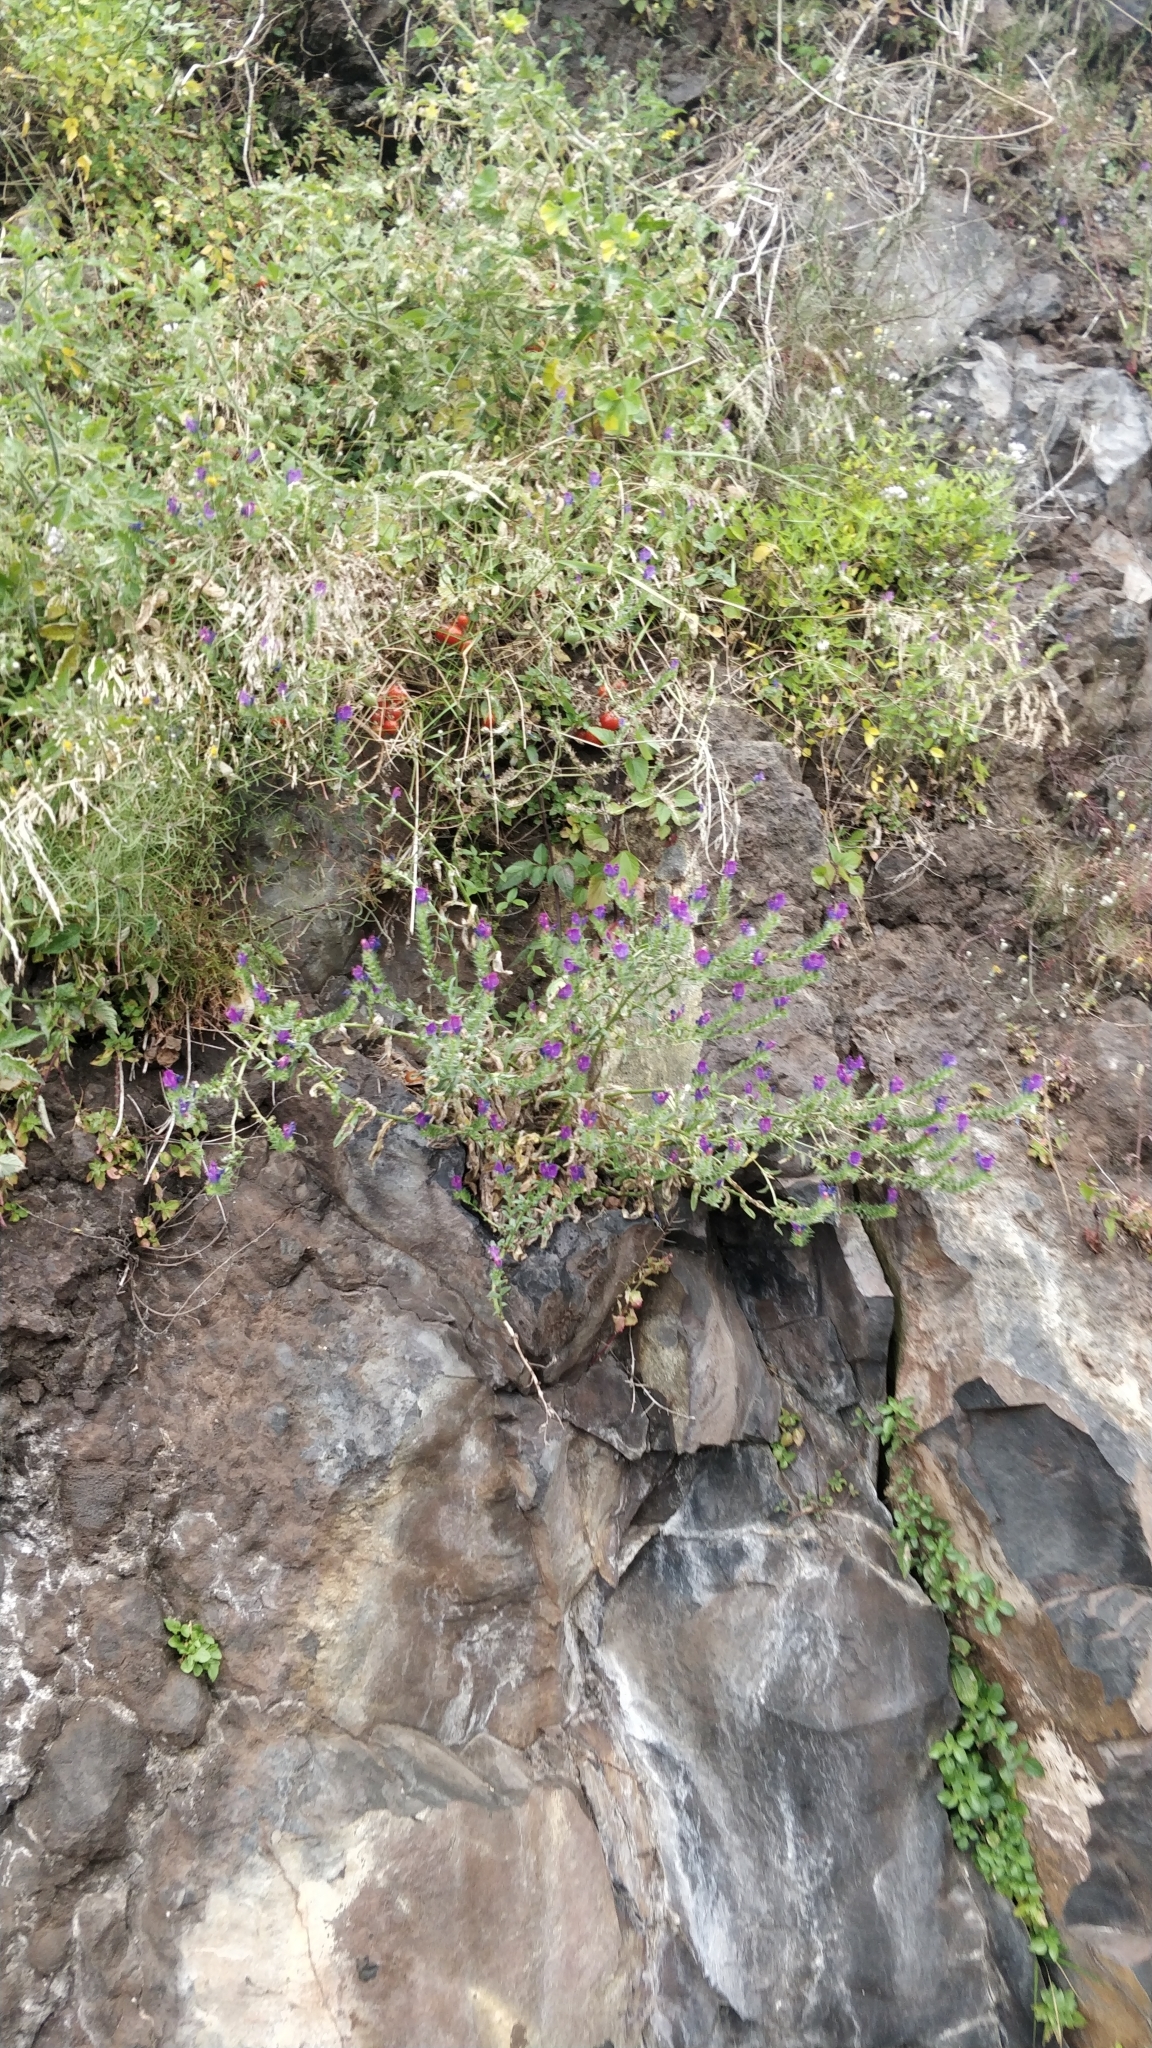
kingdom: Plantae
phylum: Tracheophyta
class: Magnoliopsida
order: Boraginales
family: Boraginaceae
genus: Echium
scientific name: Echium plantagineum
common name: Purple viper's-bugloss
